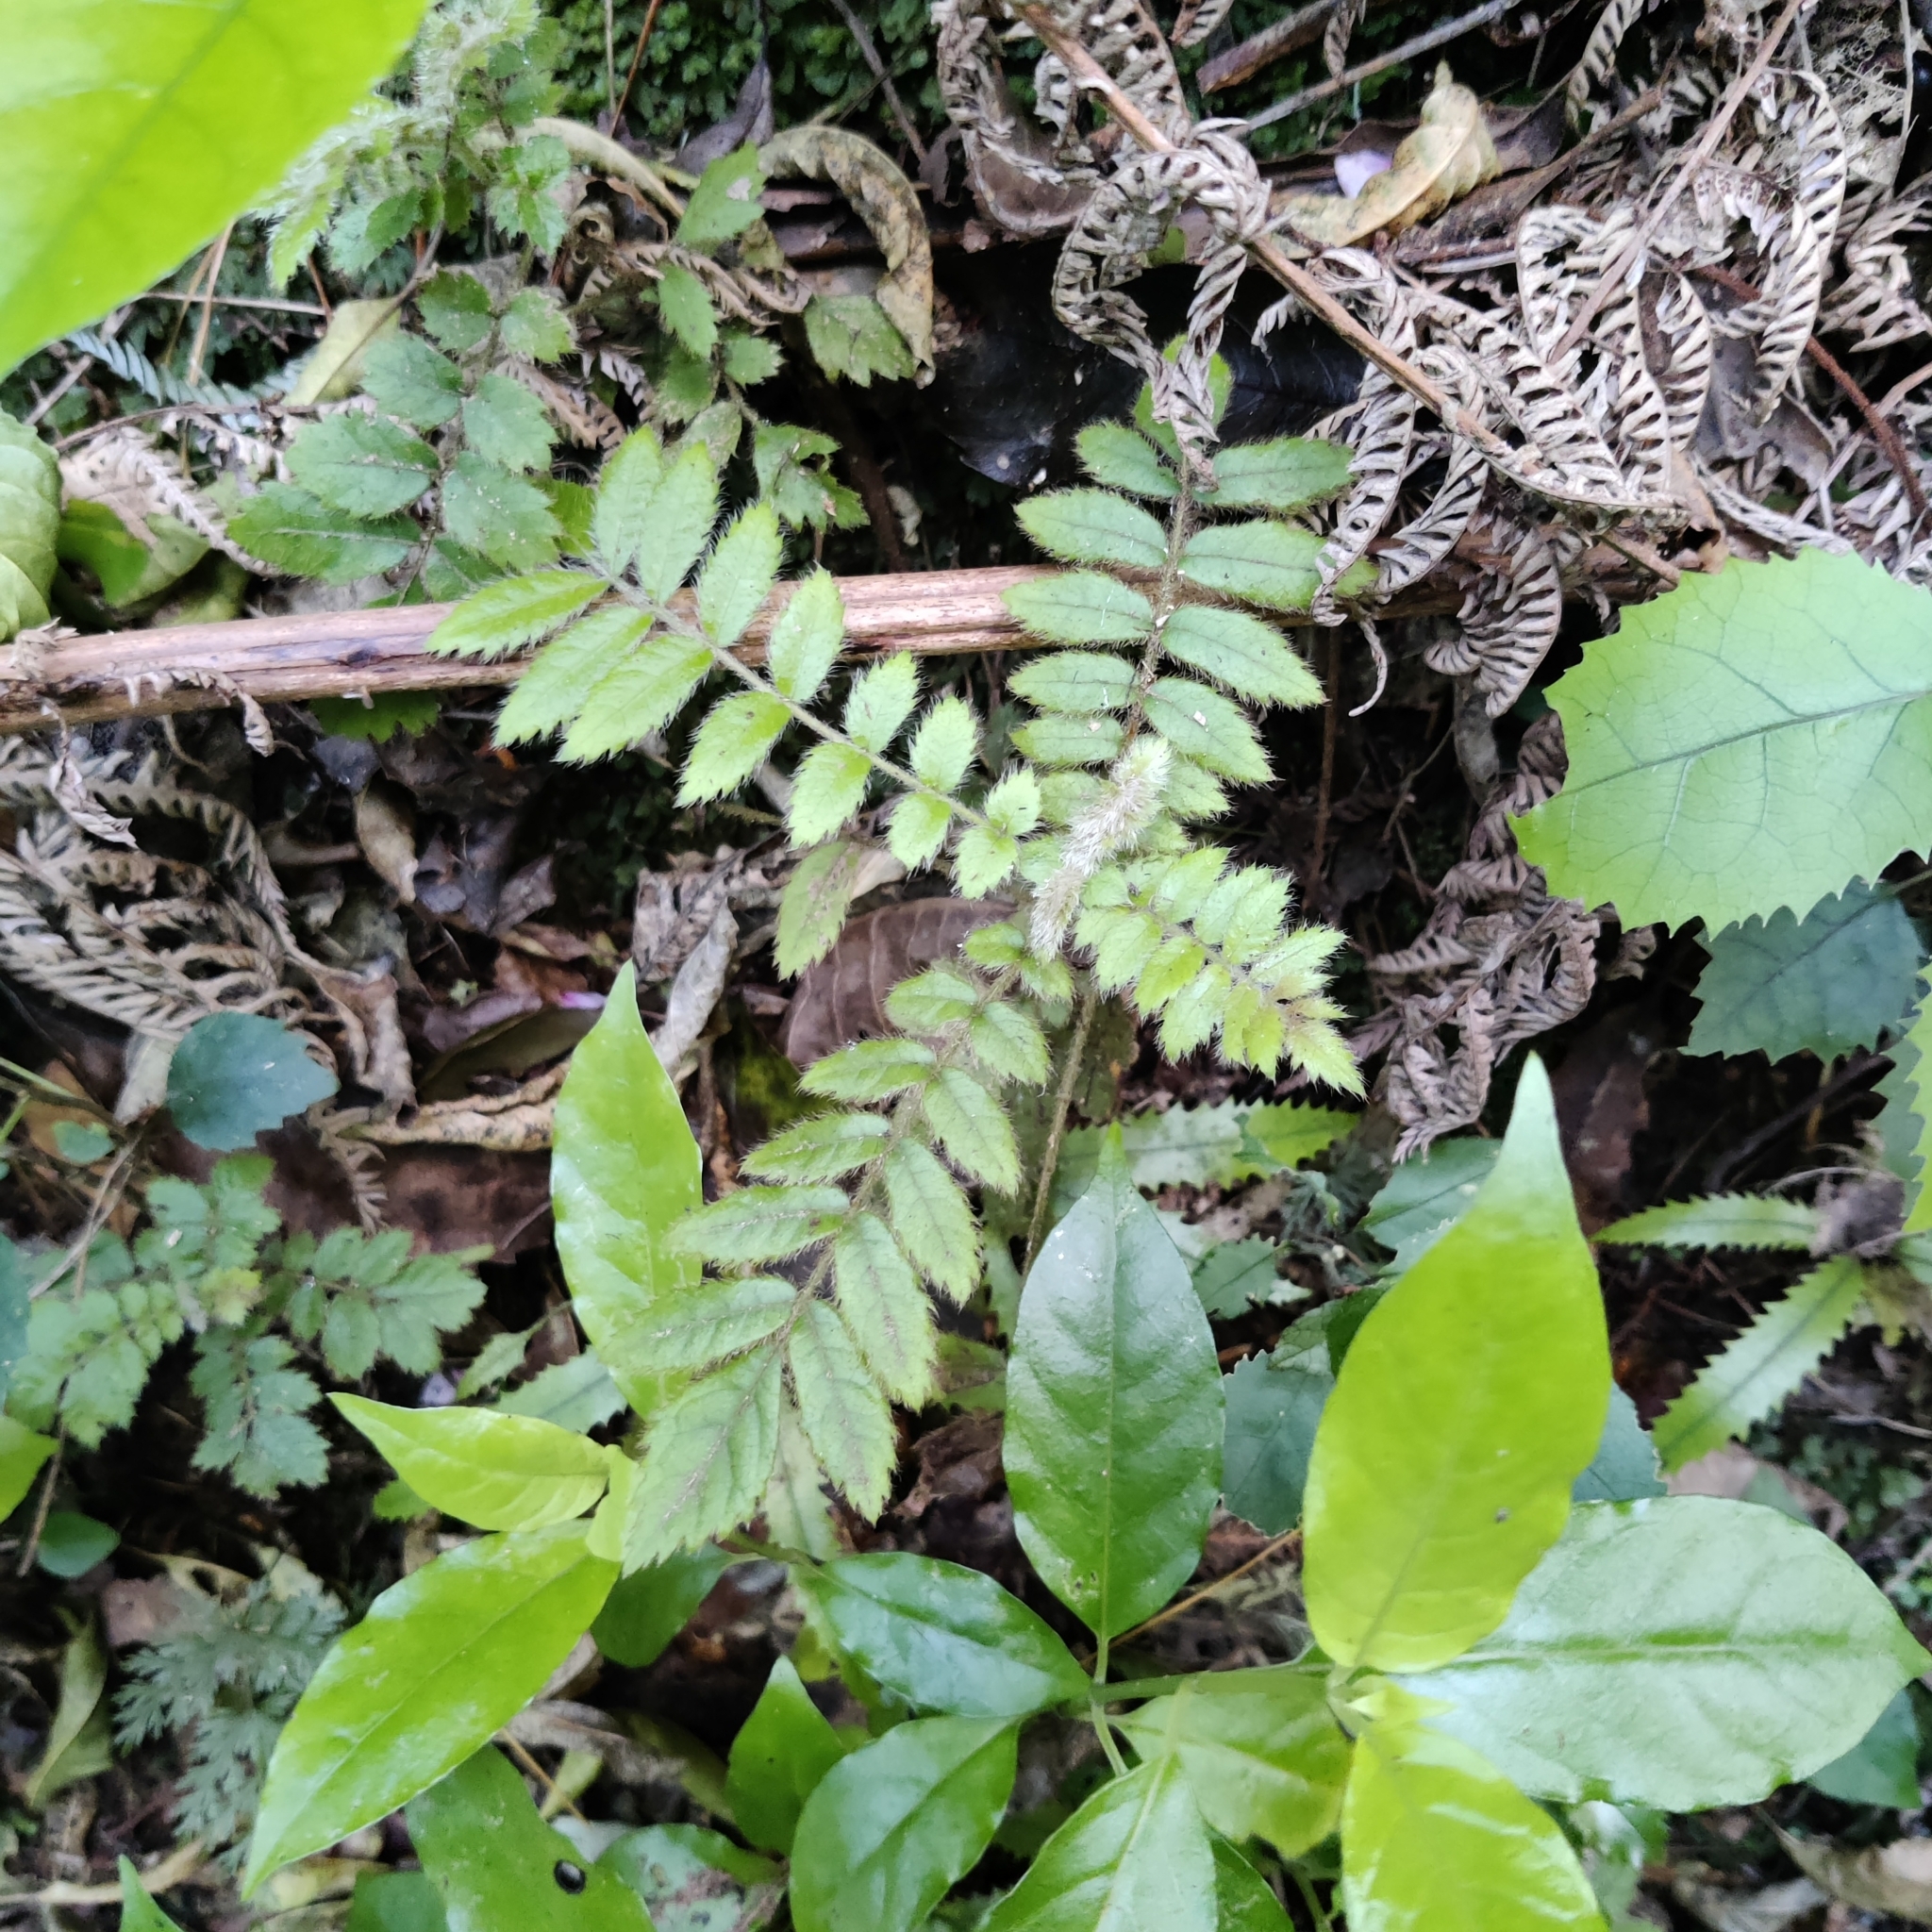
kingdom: Plantae
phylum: Tracheophyta
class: Magnoliopsida
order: Oxalidales
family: Cunoniaceae
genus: Ackama
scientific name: Ackama rosifolia
